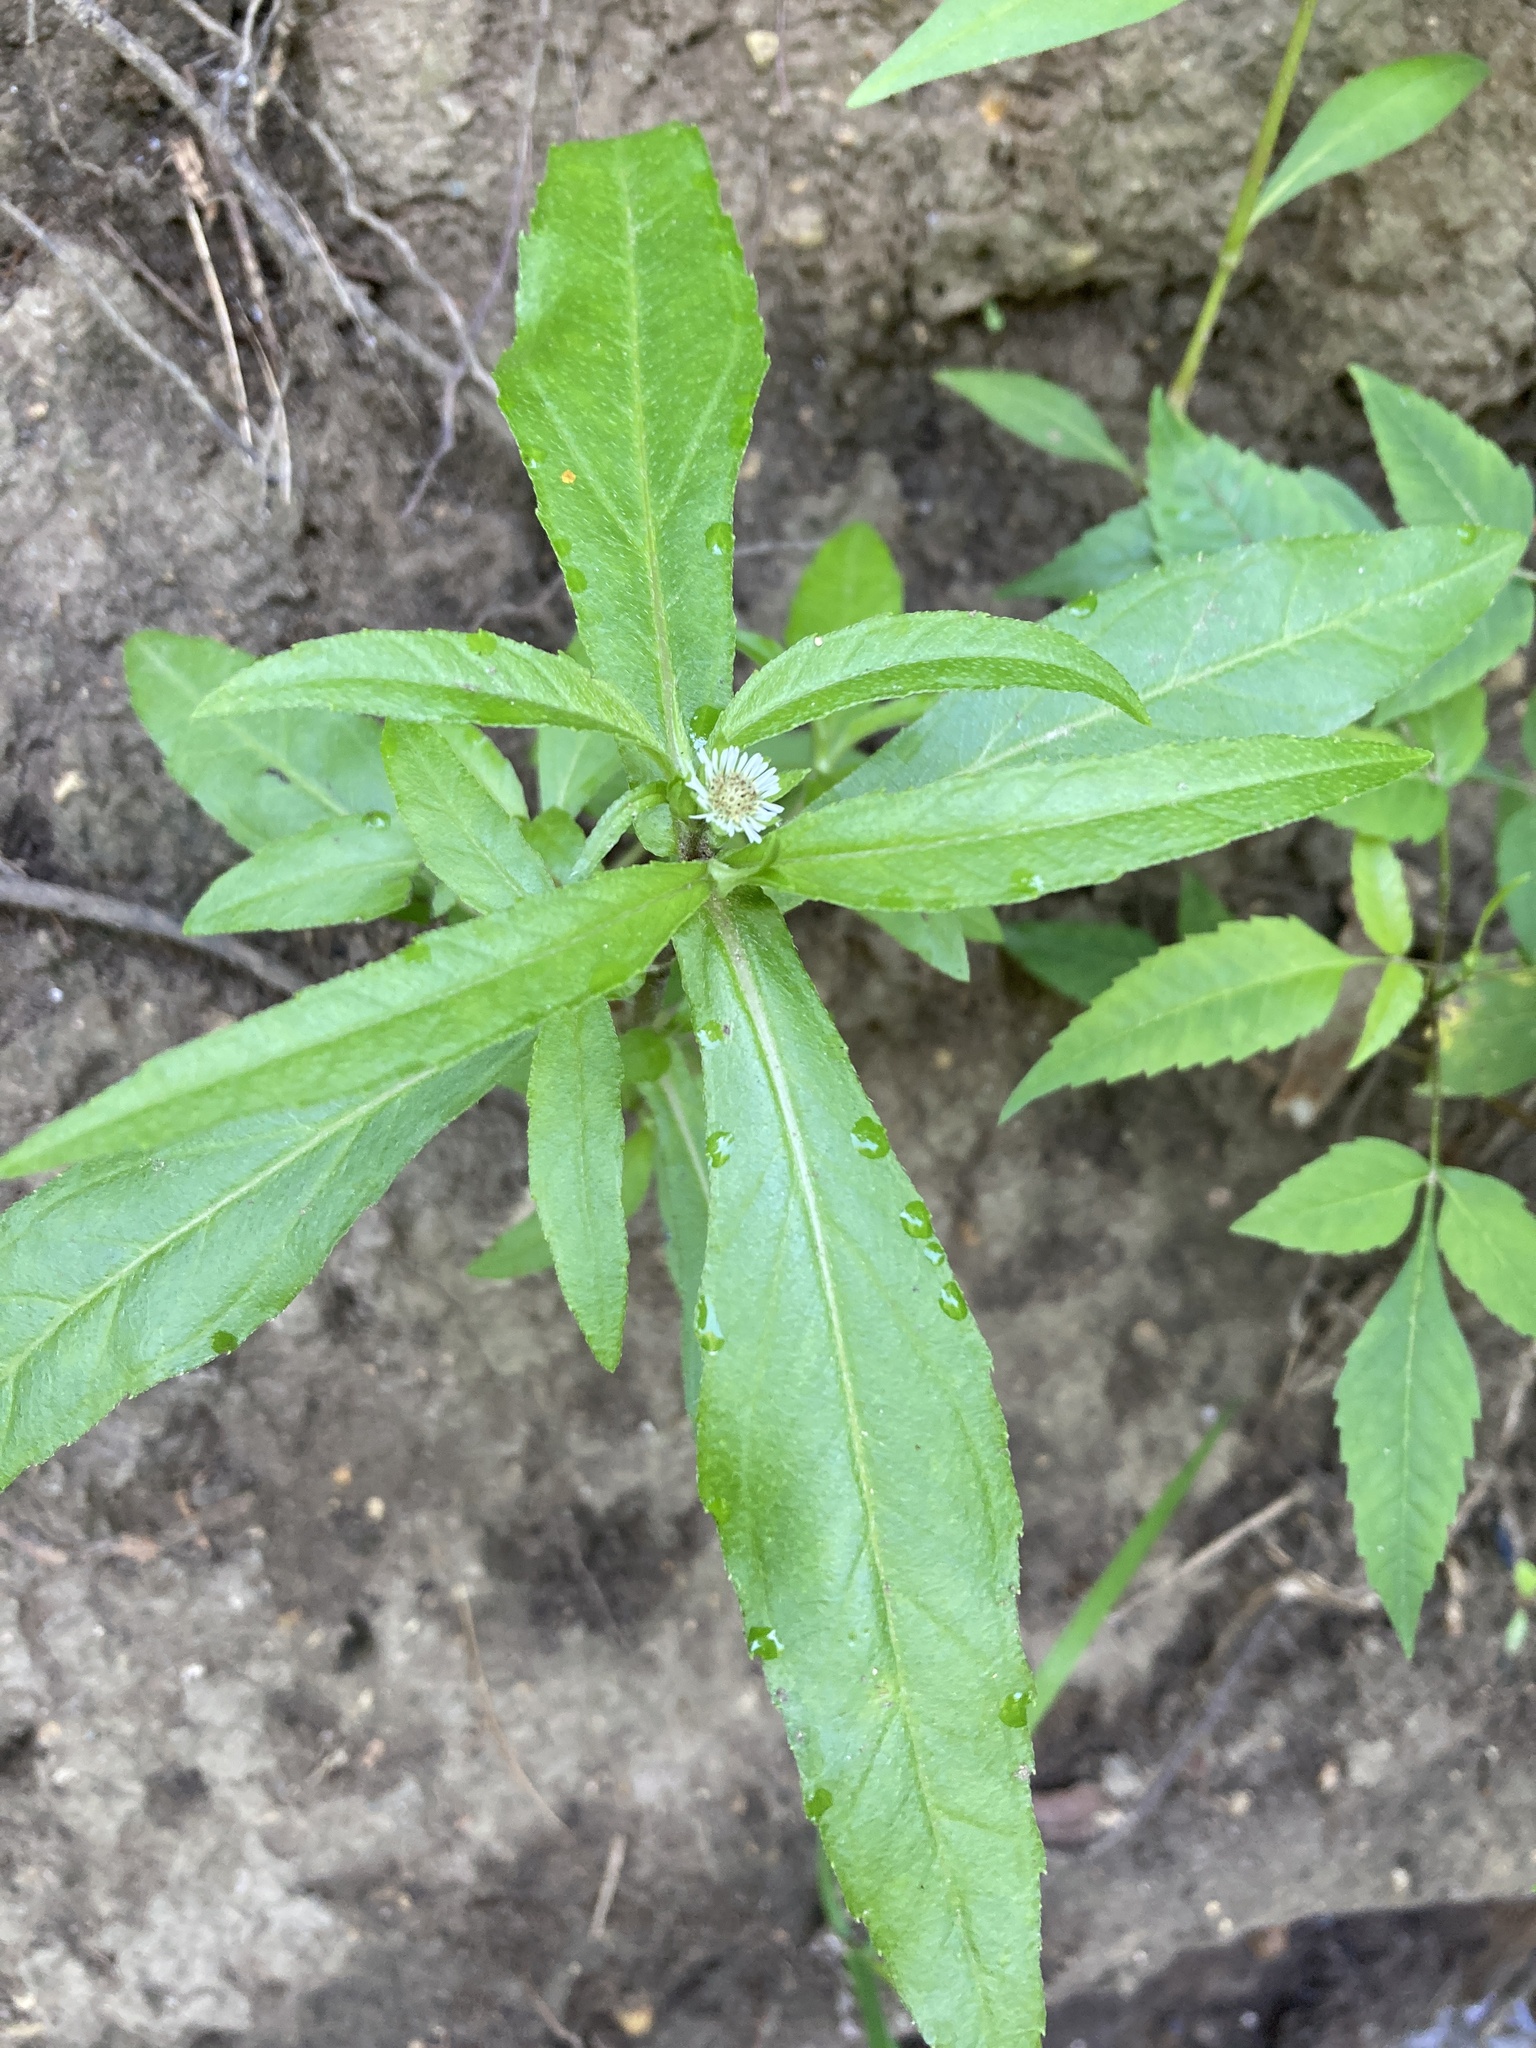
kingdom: Plantae
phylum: Tracheophyta
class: Magnoliopsida
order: Asterales
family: Asteraceae
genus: Eclipta
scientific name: Eclipta prostrata
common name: False daisy
